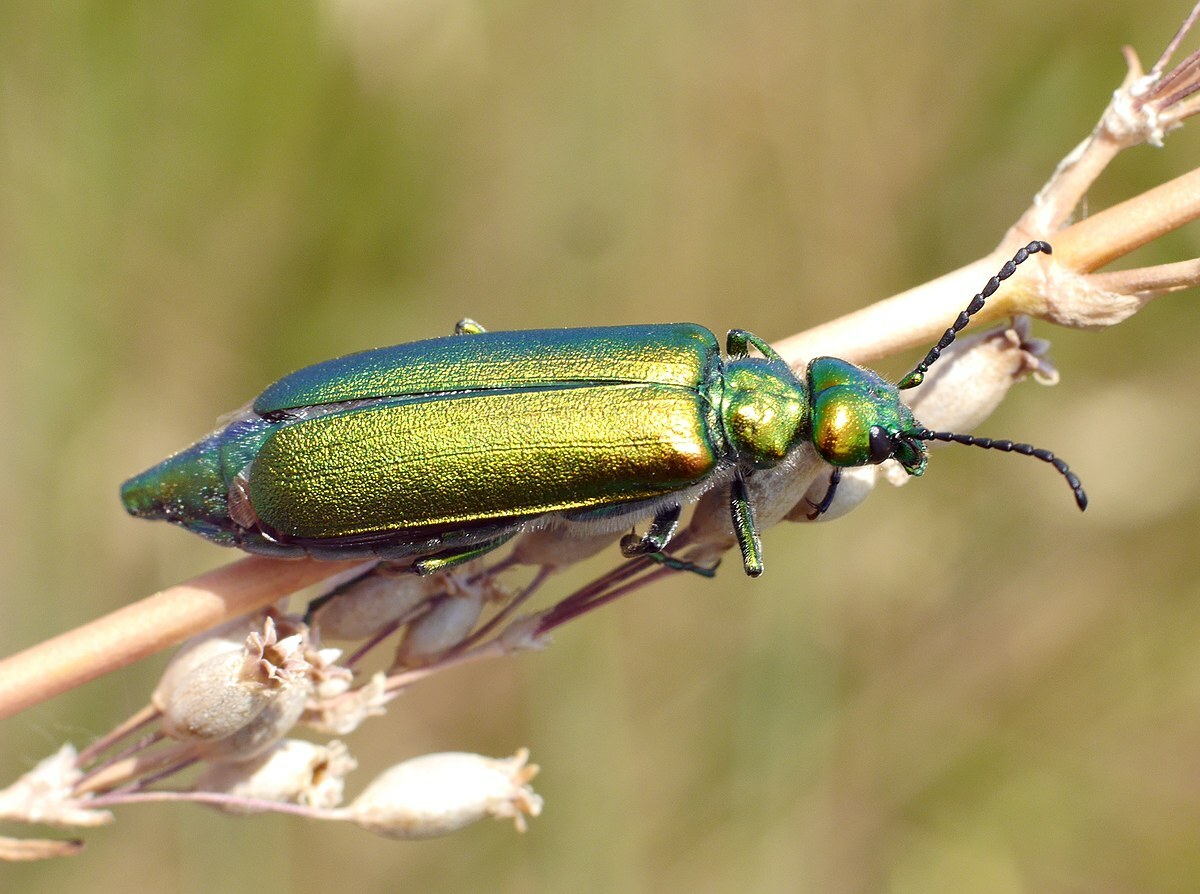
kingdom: Animalia
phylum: Arthropoda
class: Insecta
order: Coleoptera
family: Meloidae
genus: Lytta
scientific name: Lytta vesicatoria
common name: Spanish fly
